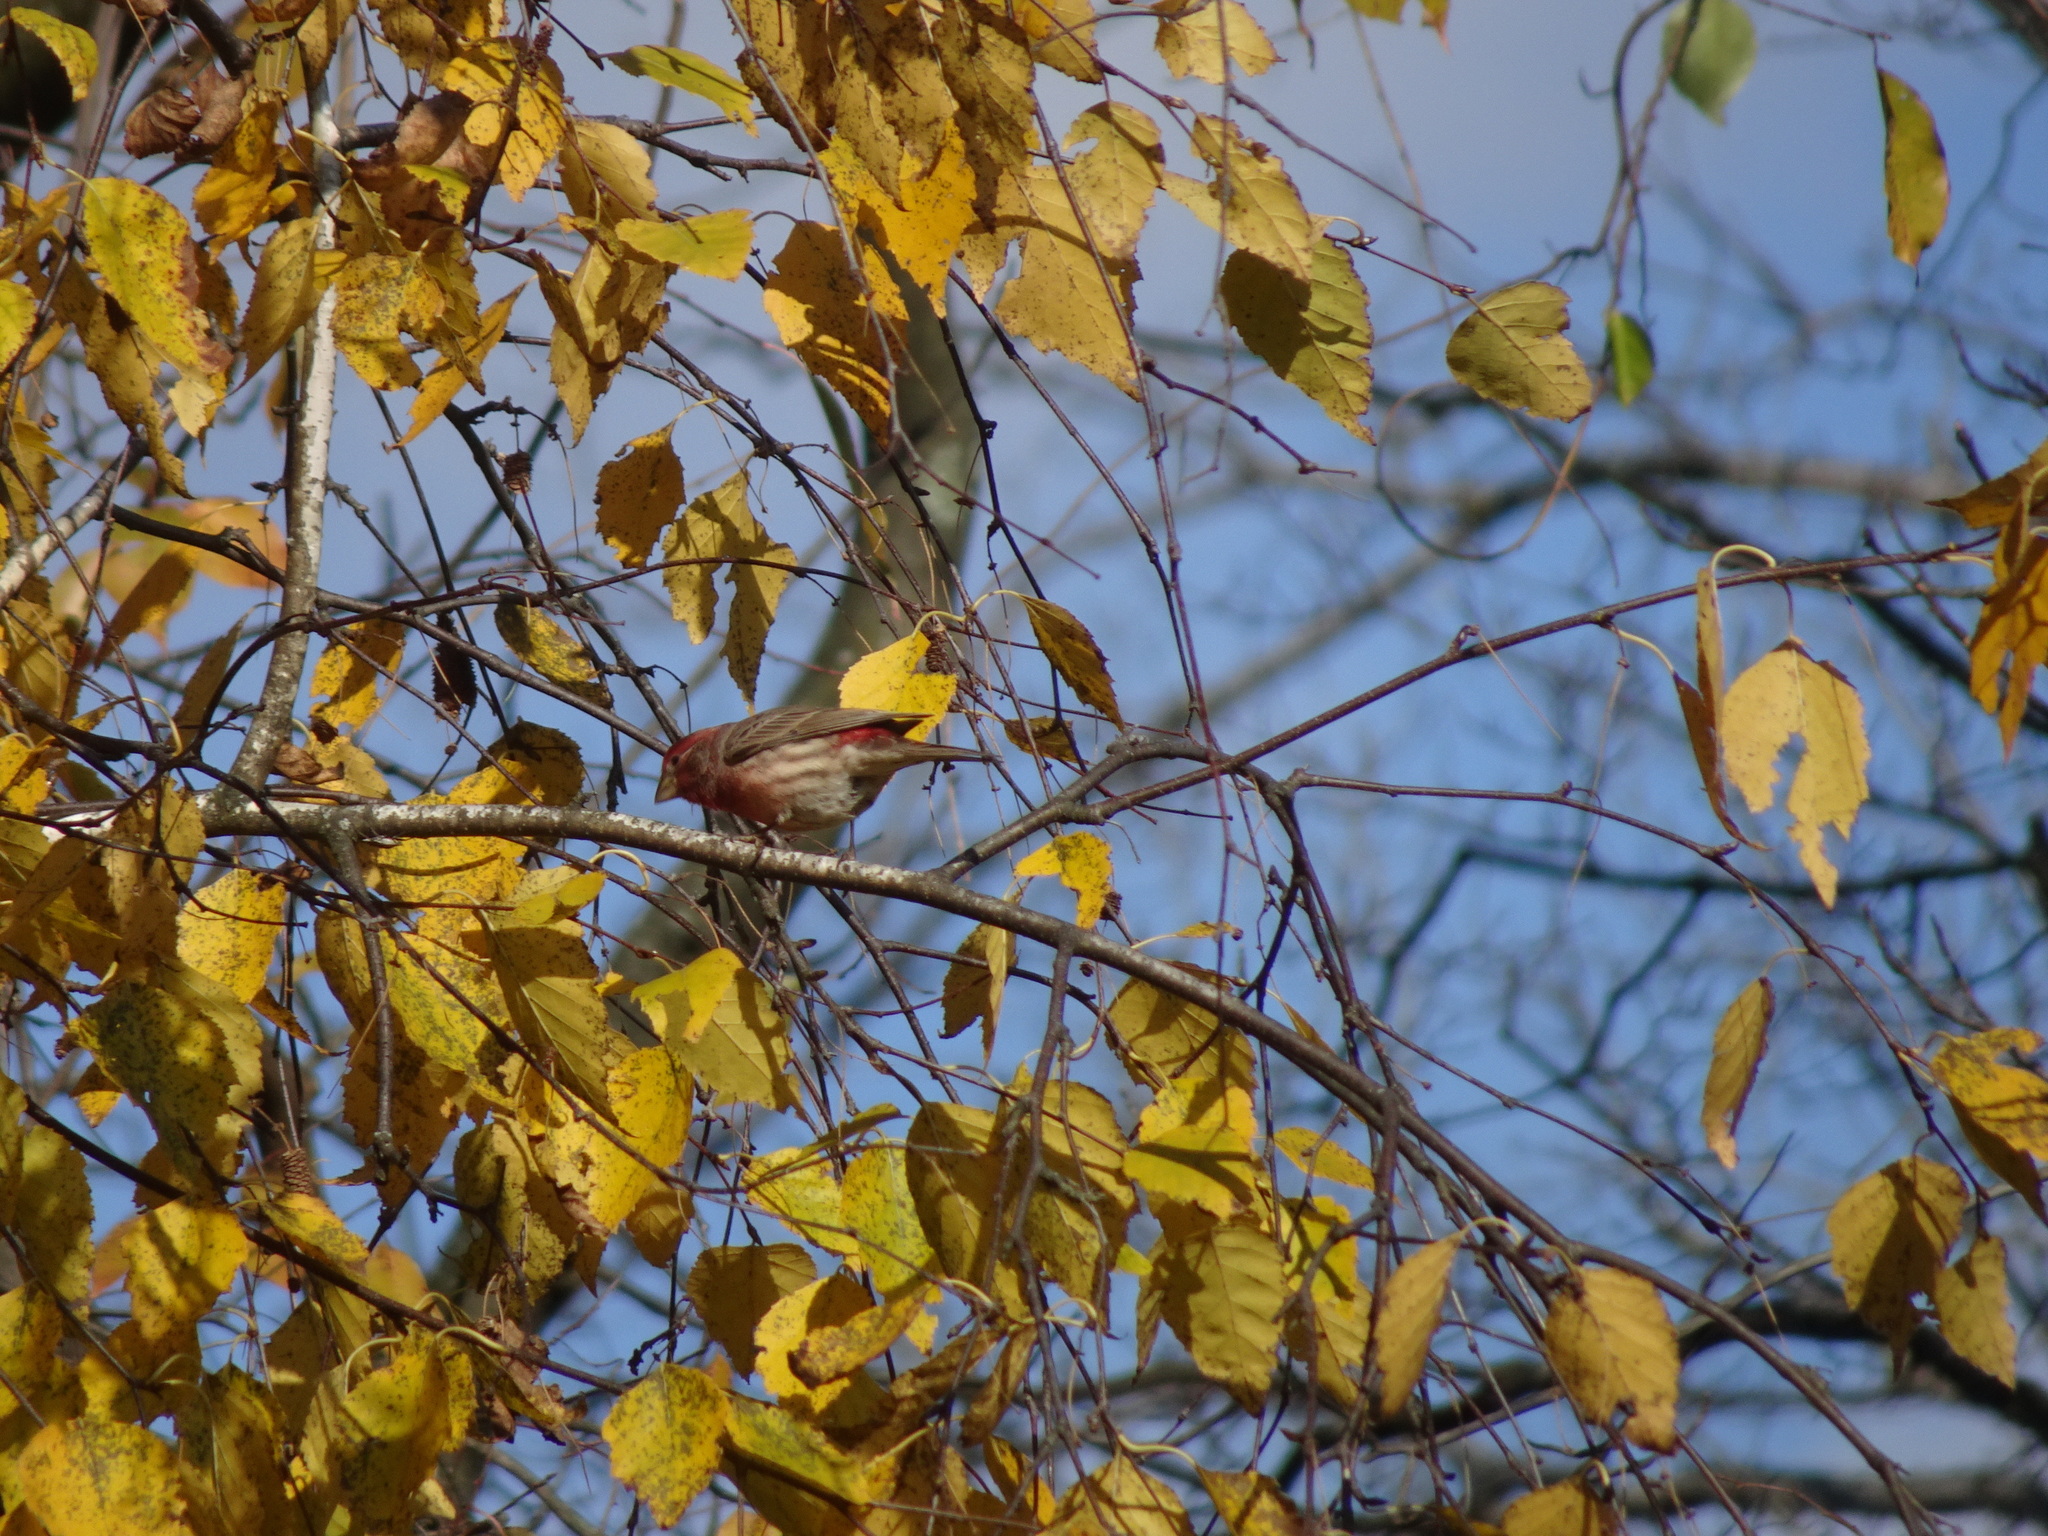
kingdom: Animalia
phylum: Chordata
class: Aves
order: Passeriformes
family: Fringillidae
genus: Haemorhous
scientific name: Haemorhous mexicanus
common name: House finch
